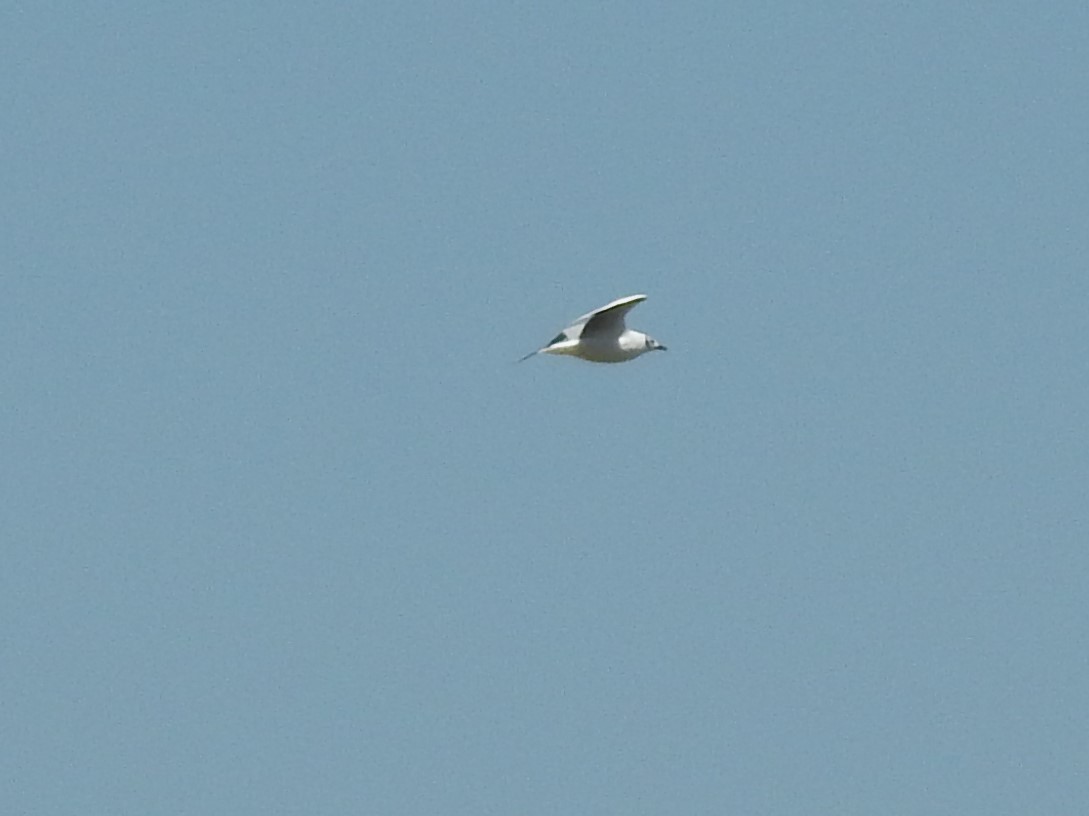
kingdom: Animalia
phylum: Chordata
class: Aves
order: Charadriiformes
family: Laridae
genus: Chroicocephalus
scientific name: Chroicocephalus cirrocephalus
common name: Grey-headed gull
